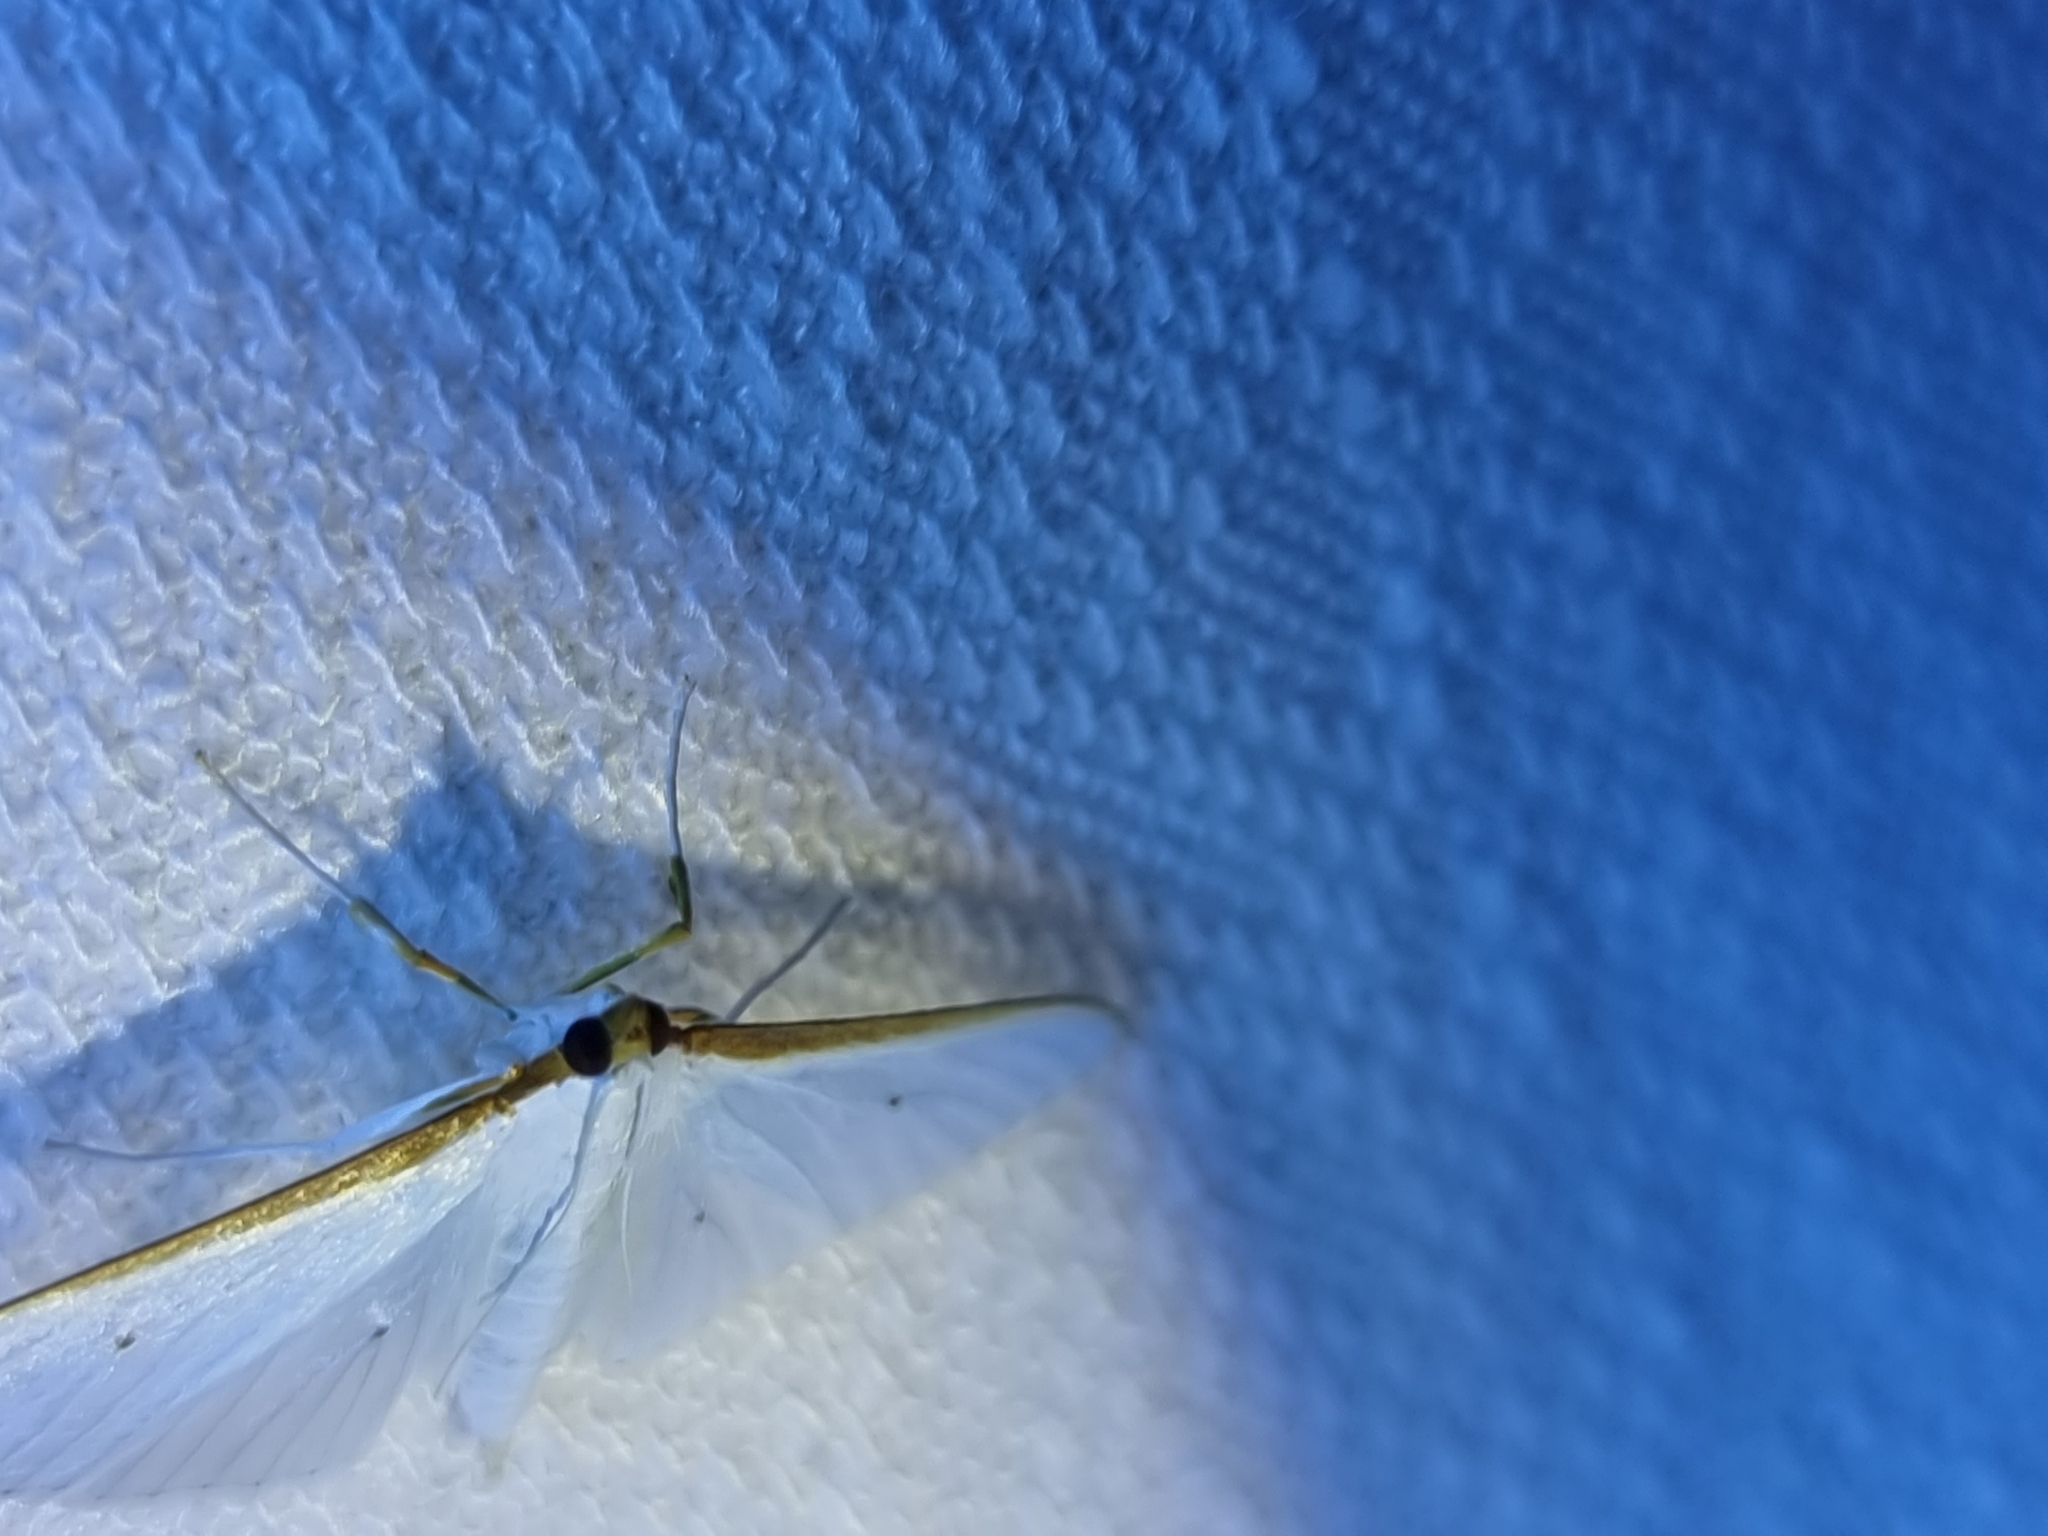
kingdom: Animalia
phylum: Arthropoda
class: Insecta
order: Lepidoptera
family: Crambidae
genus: Palpita
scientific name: Palpita margaritacea
